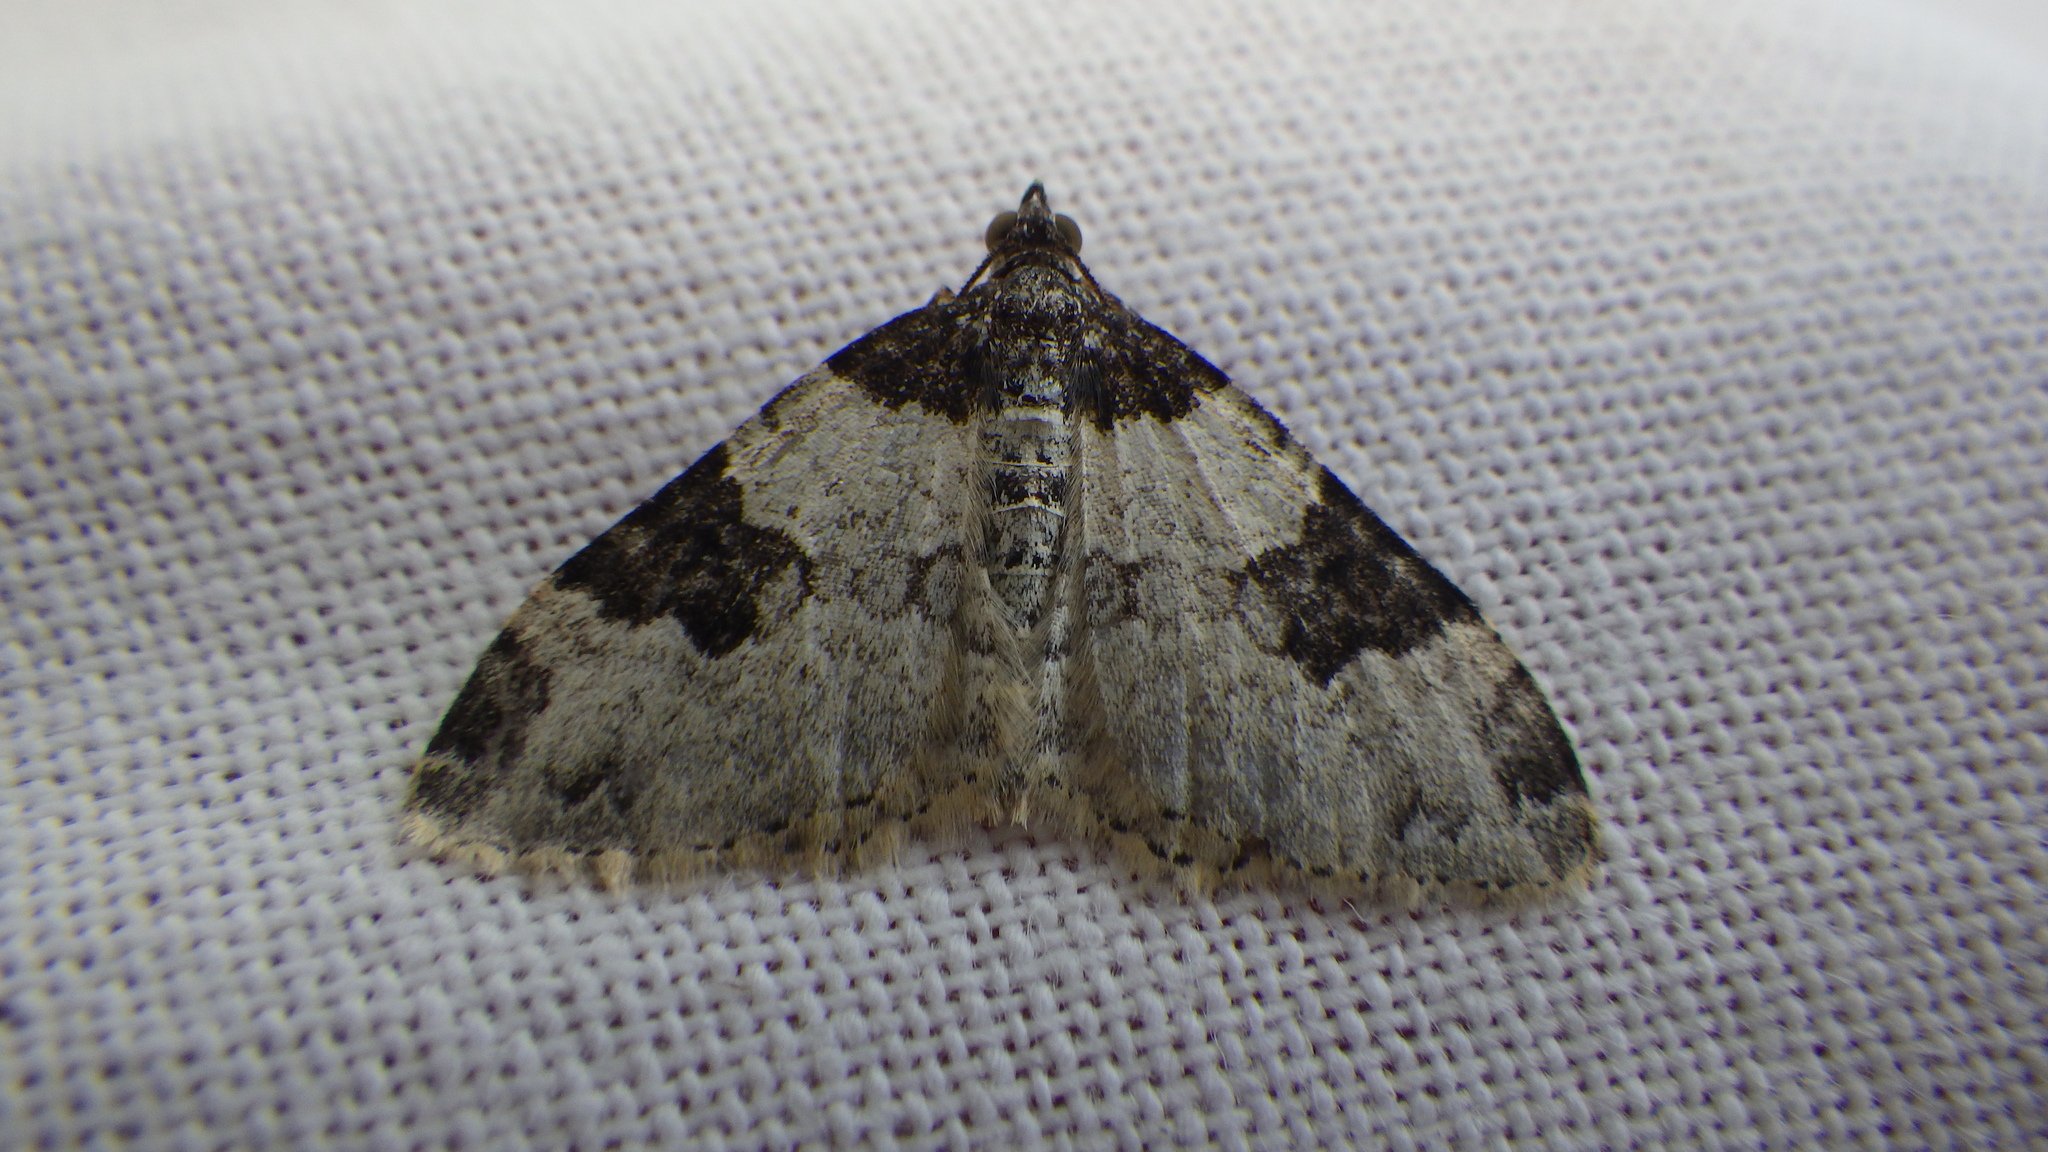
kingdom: Animalia
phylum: Arthropoda
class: Insecta
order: Lepidoptera
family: Geometridae
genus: Xanthorhoe
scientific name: Xanthorhoe fluctuata
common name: Garden carpet
